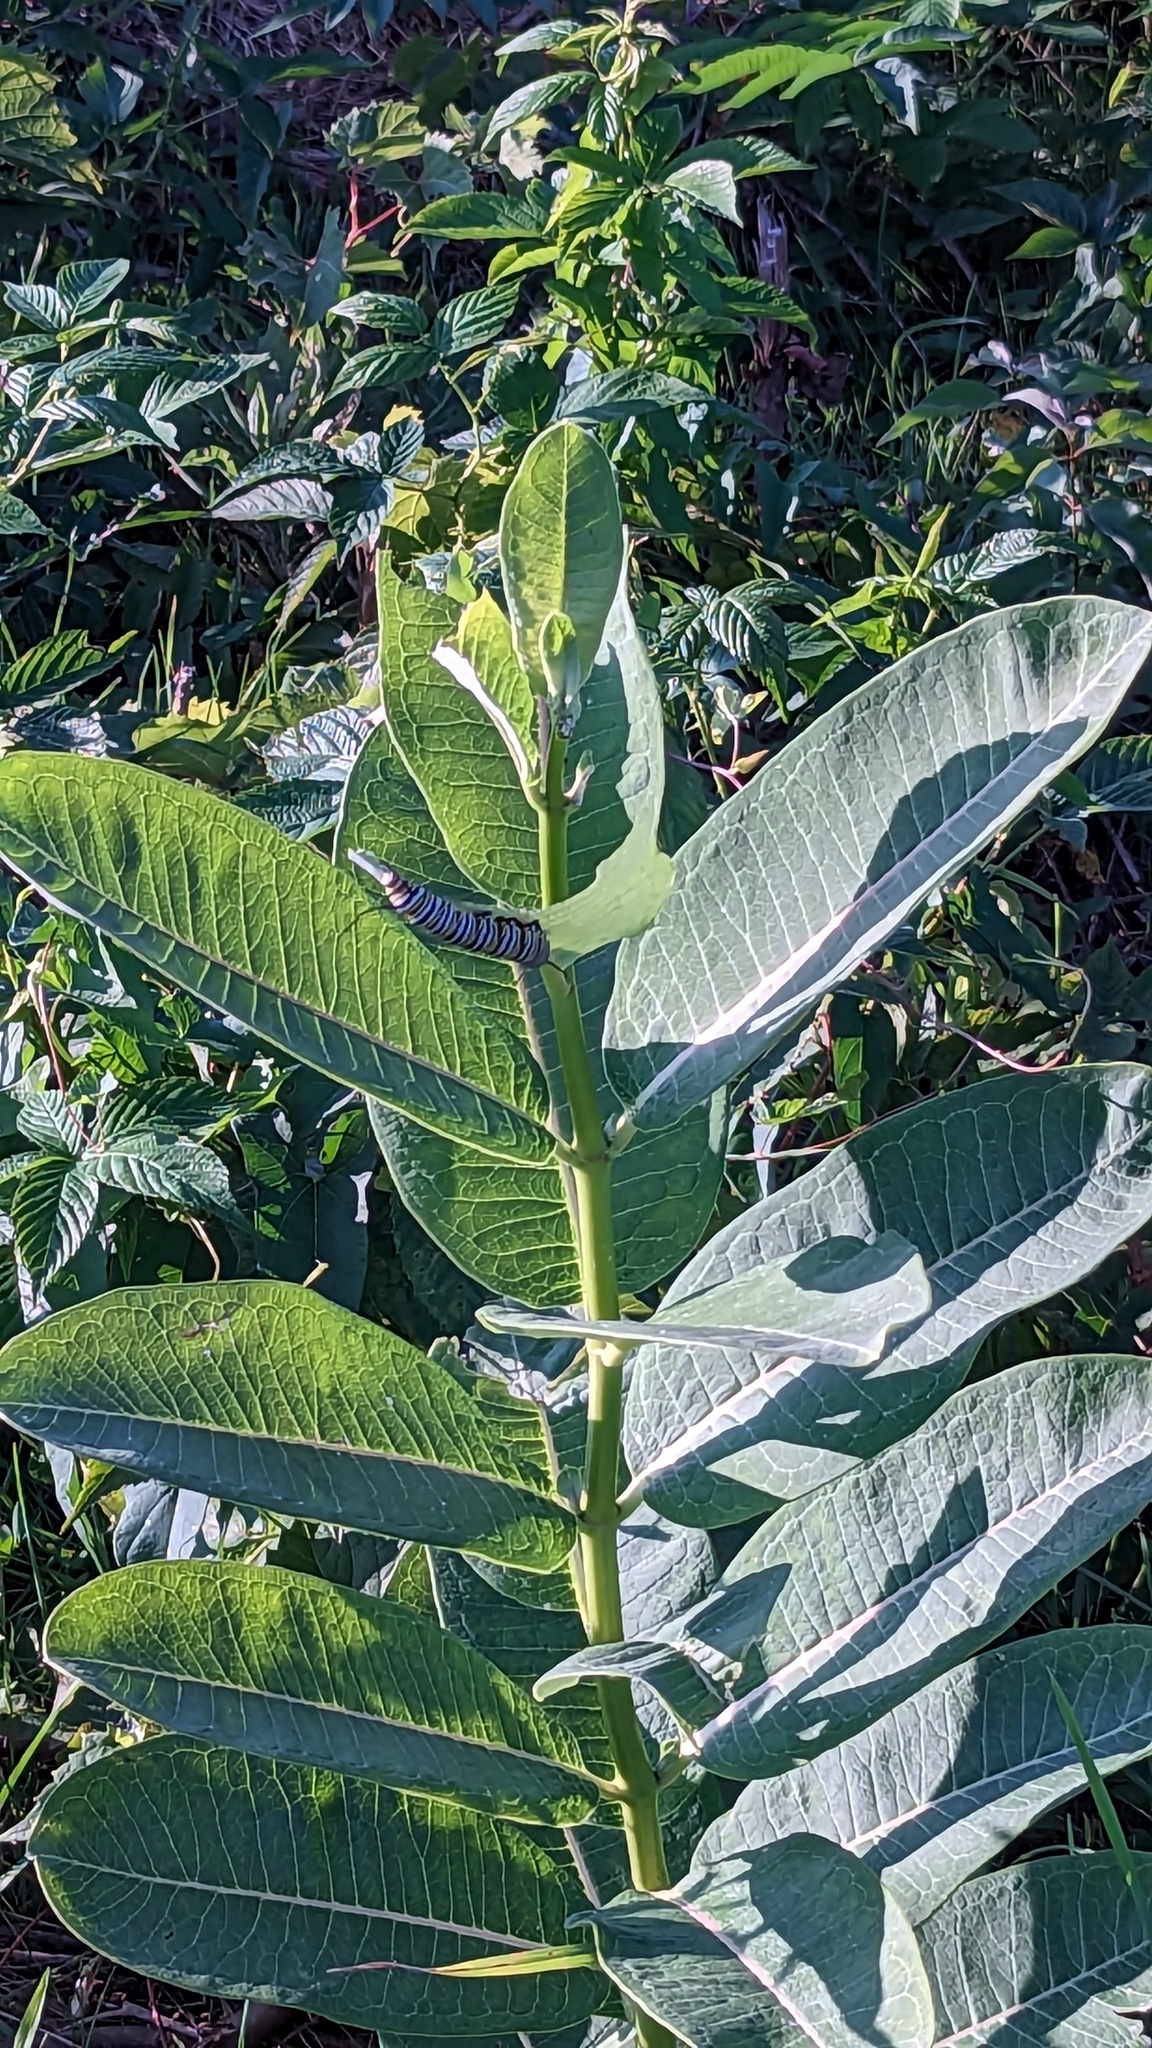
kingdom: Plantae
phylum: Tracheophyta
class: Magnoliopsida
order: Gentianales
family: Apocynaceae
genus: Asclepias
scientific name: Asclepias syriaca
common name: Common milkweed
